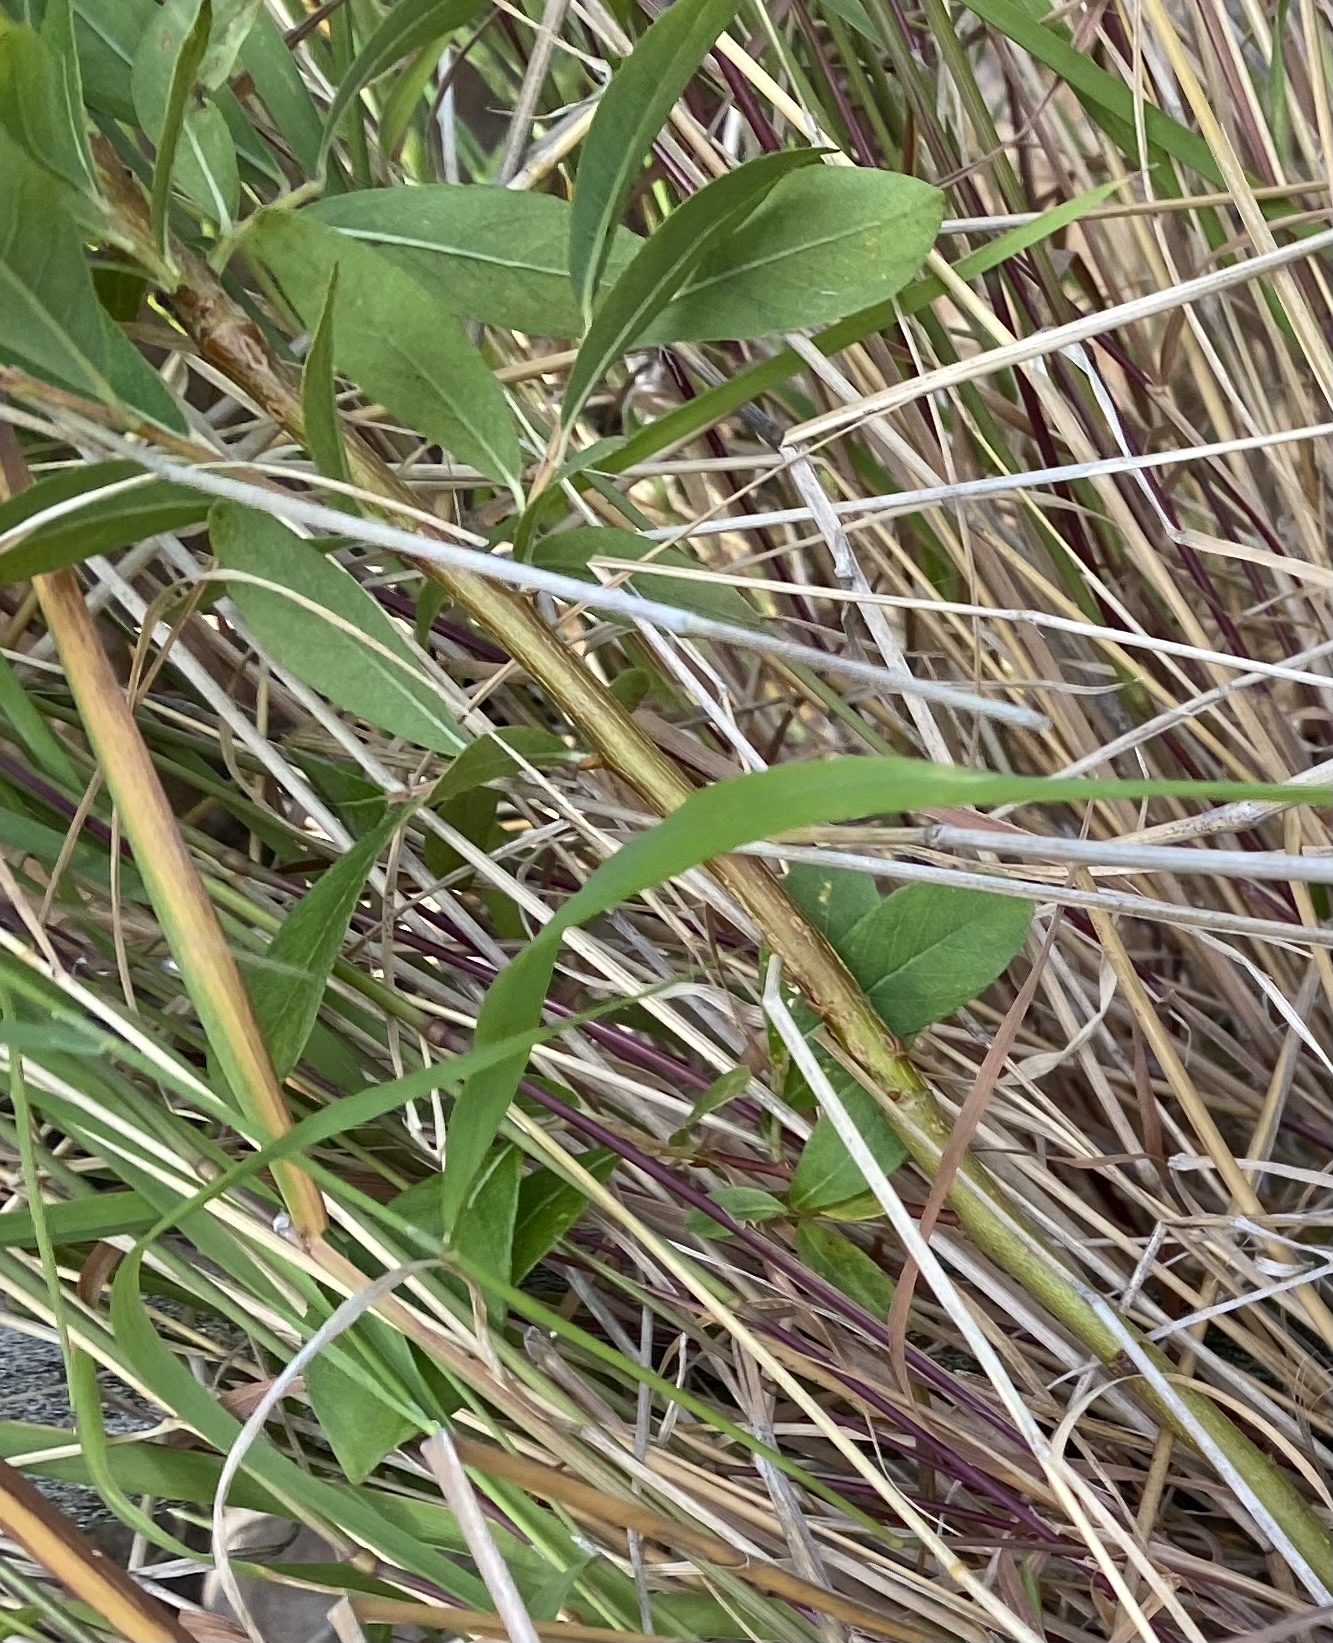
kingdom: Plantae
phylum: Tracheophyta
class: Magnoliopsida
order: Malpighiales
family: Salicaceae
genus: Salix
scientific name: Salix
